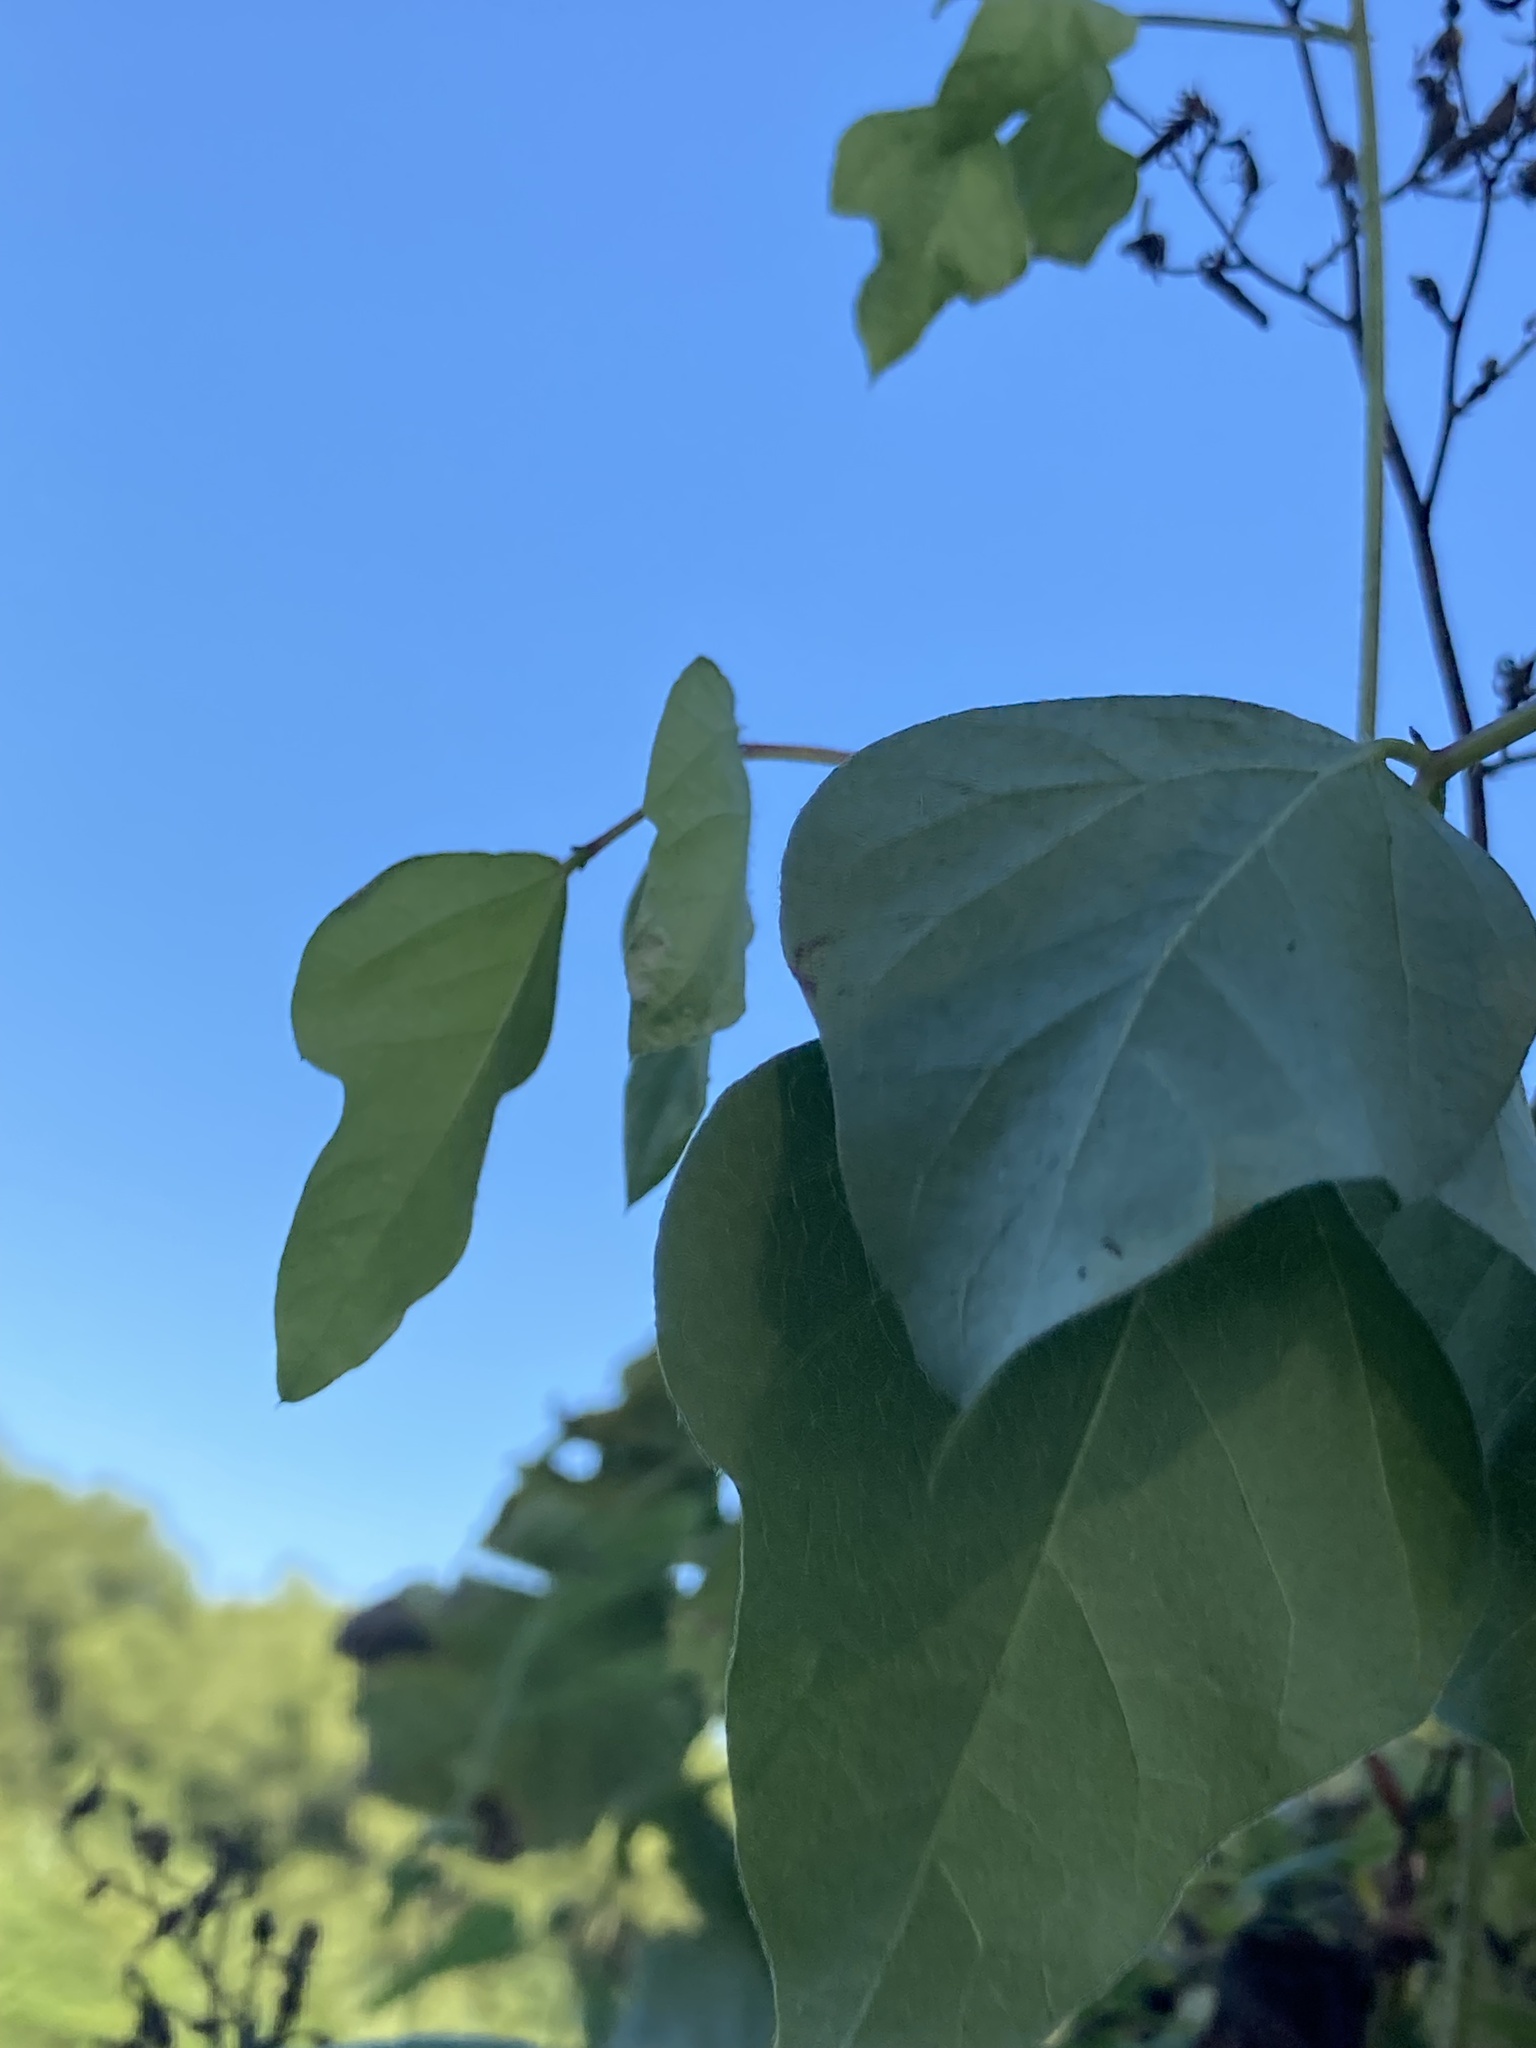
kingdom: Plantae
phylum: Tracheophyta
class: Magnoliopsida
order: Fabales
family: Fabaceae
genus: Pueraria
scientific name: Pueraria montana
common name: Kudzu
